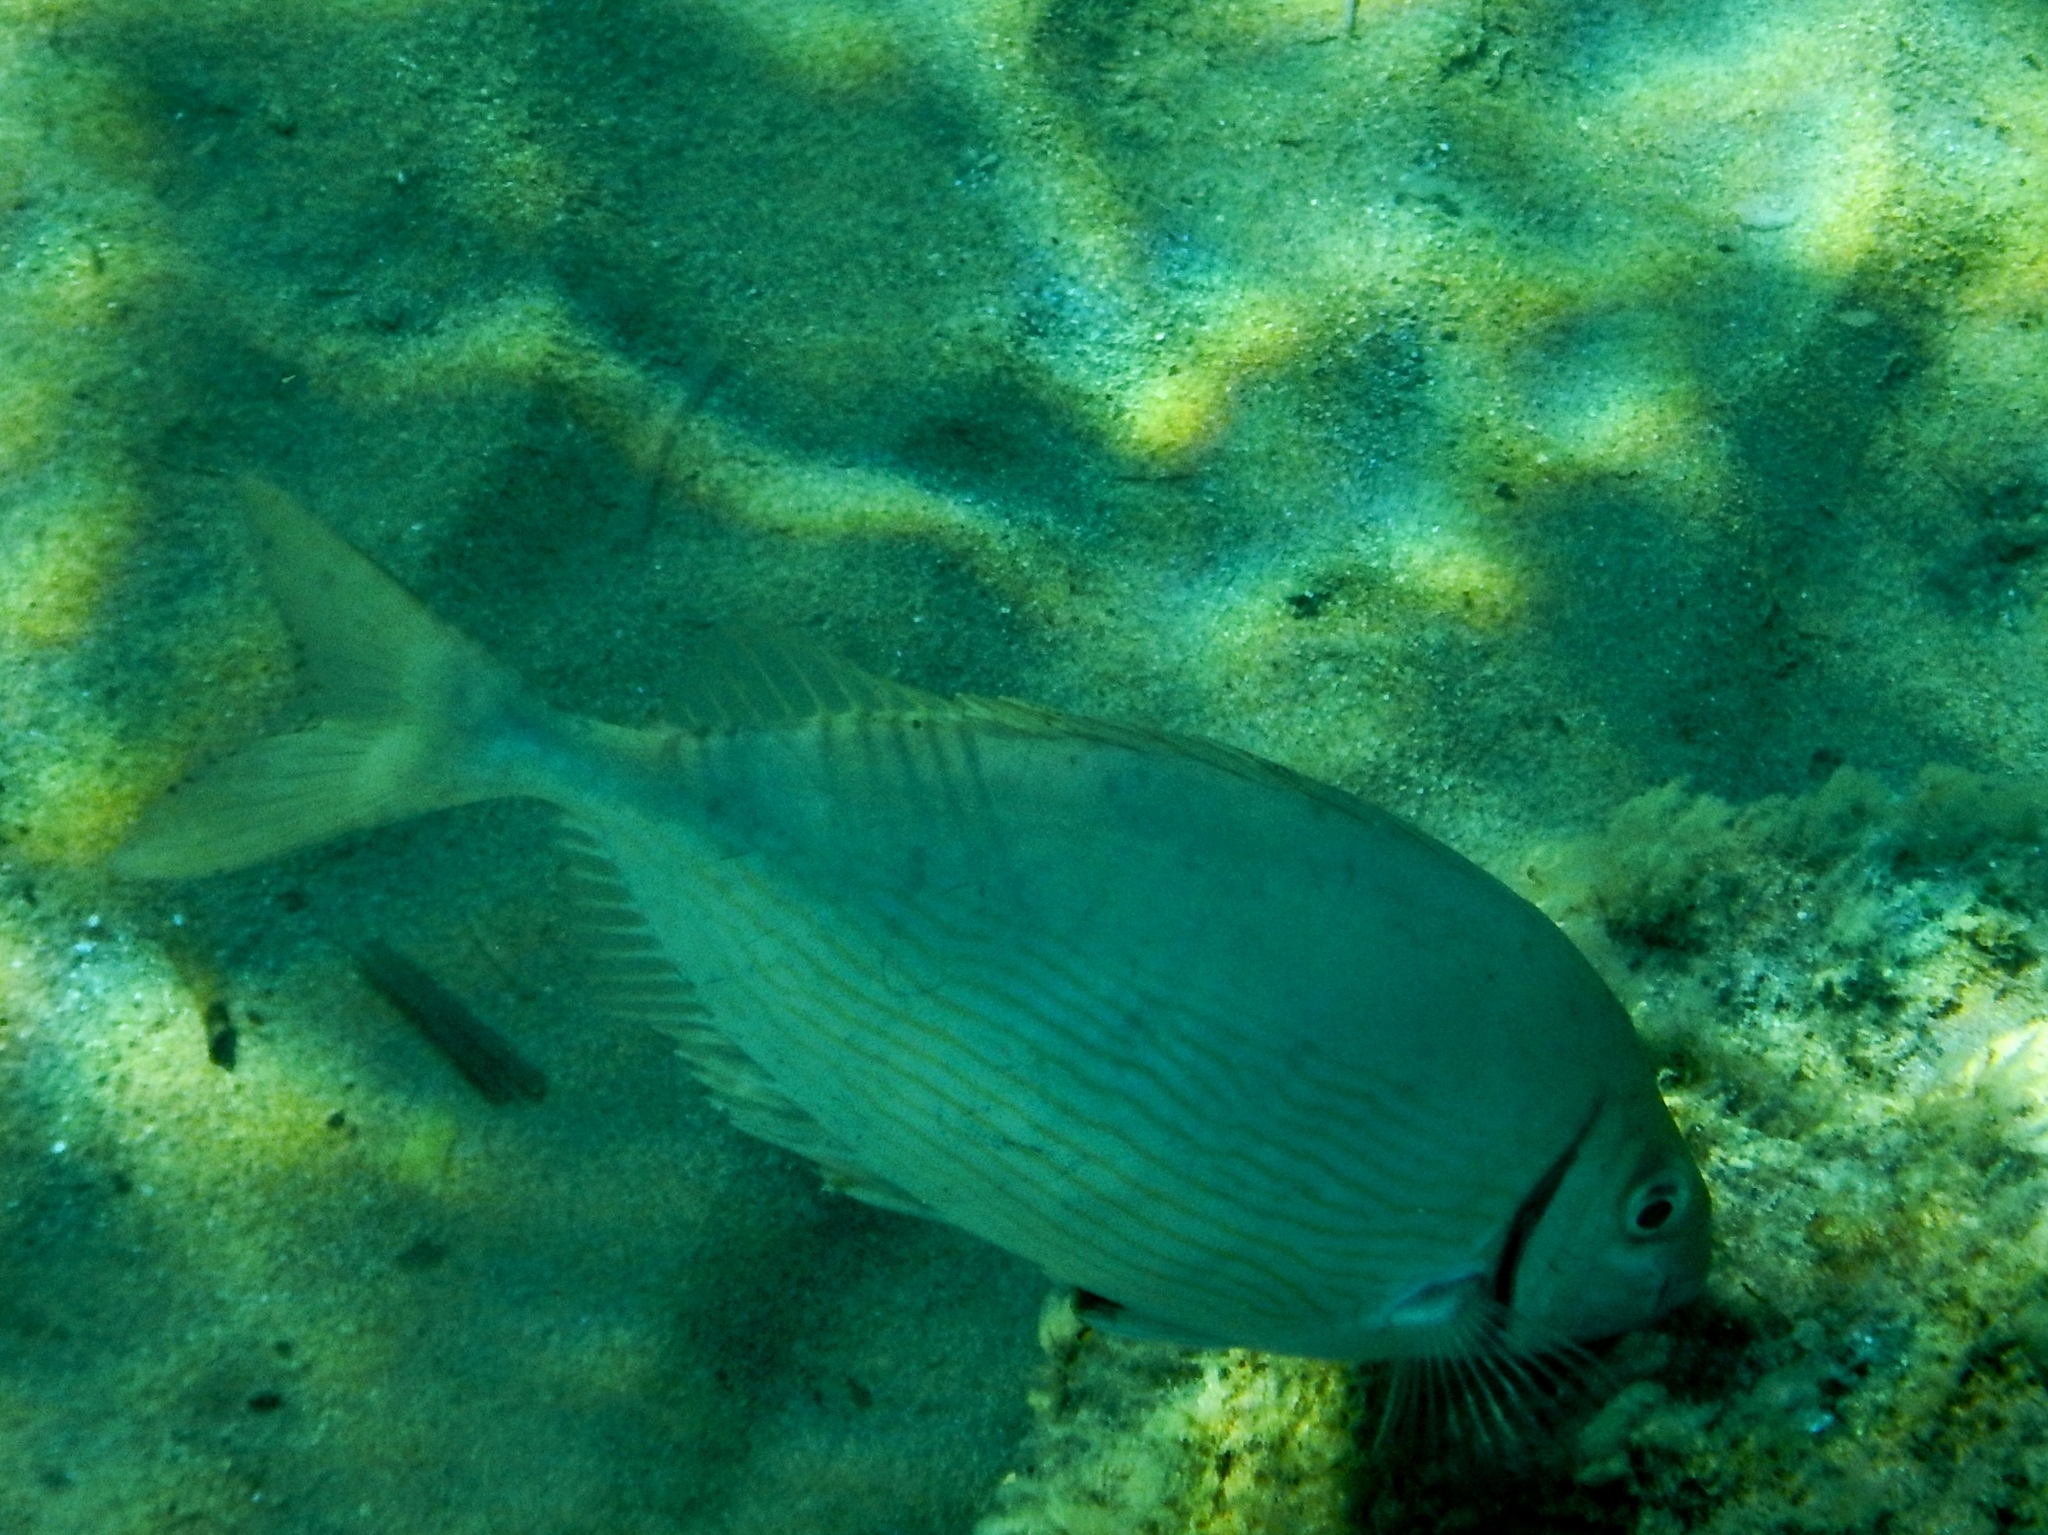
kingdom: Animalia
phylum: Chordata
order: Perciformes
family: Siganidae
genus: Siganus
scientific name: Siganus rivulatus
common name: Marbled spinefoot
